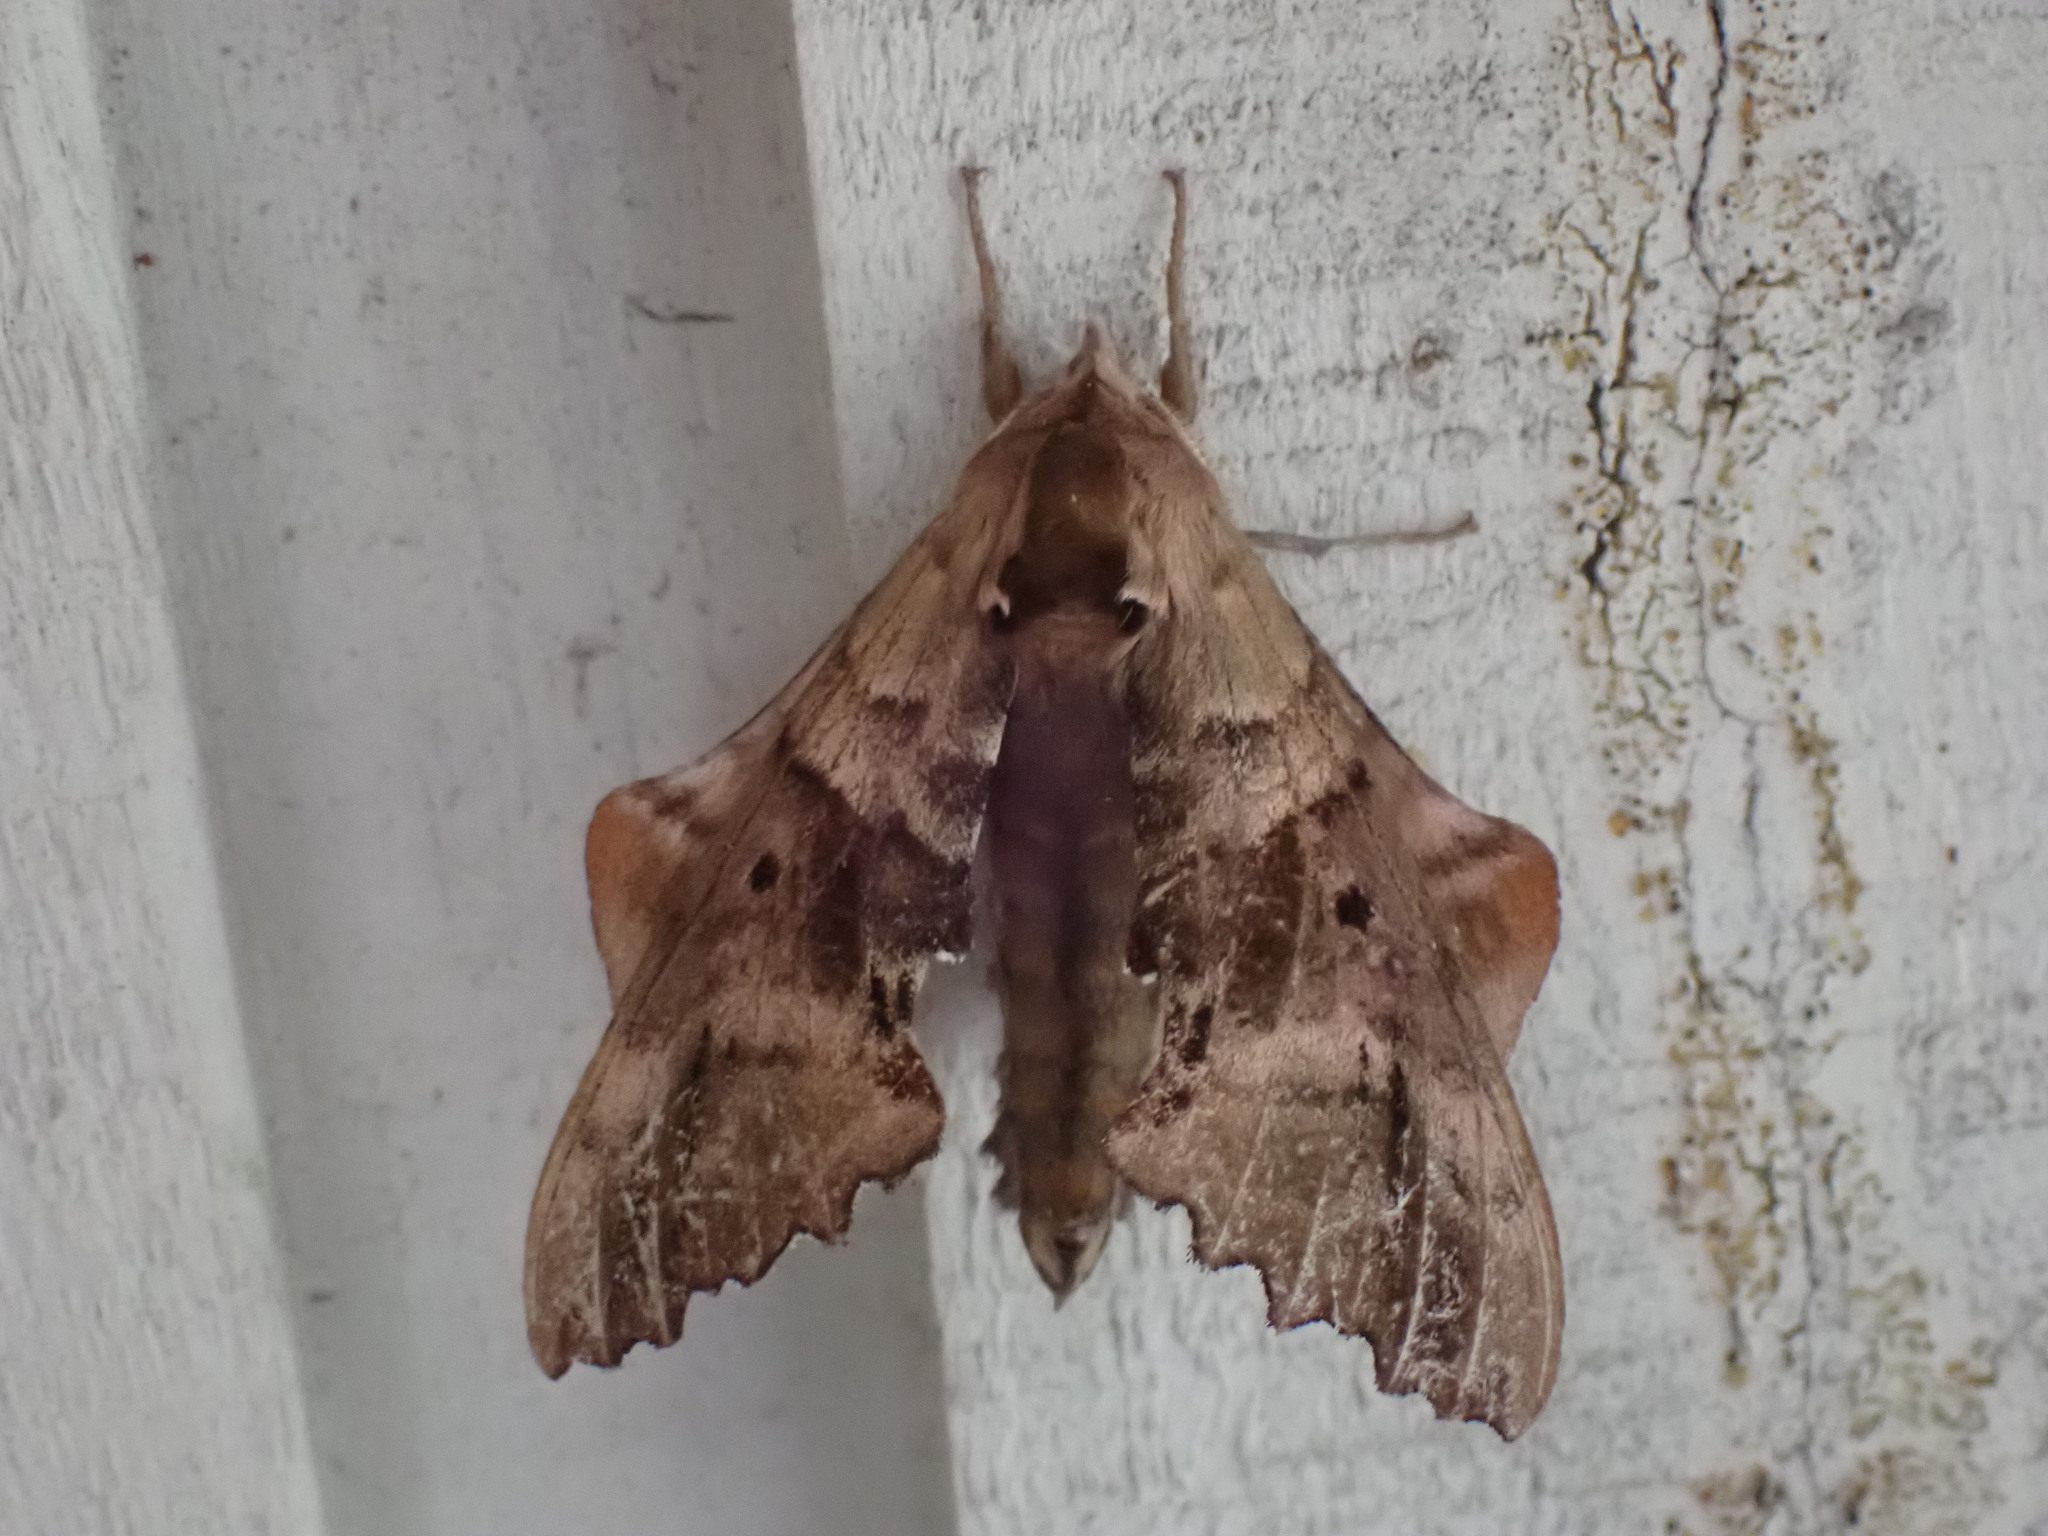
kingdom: Animalia
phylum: Arthropoda
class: Insecta
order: Lepidoptera
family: Sphingidae
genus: Paonias
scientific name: Paonias excaecata
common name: Blind-eyed sphinx
